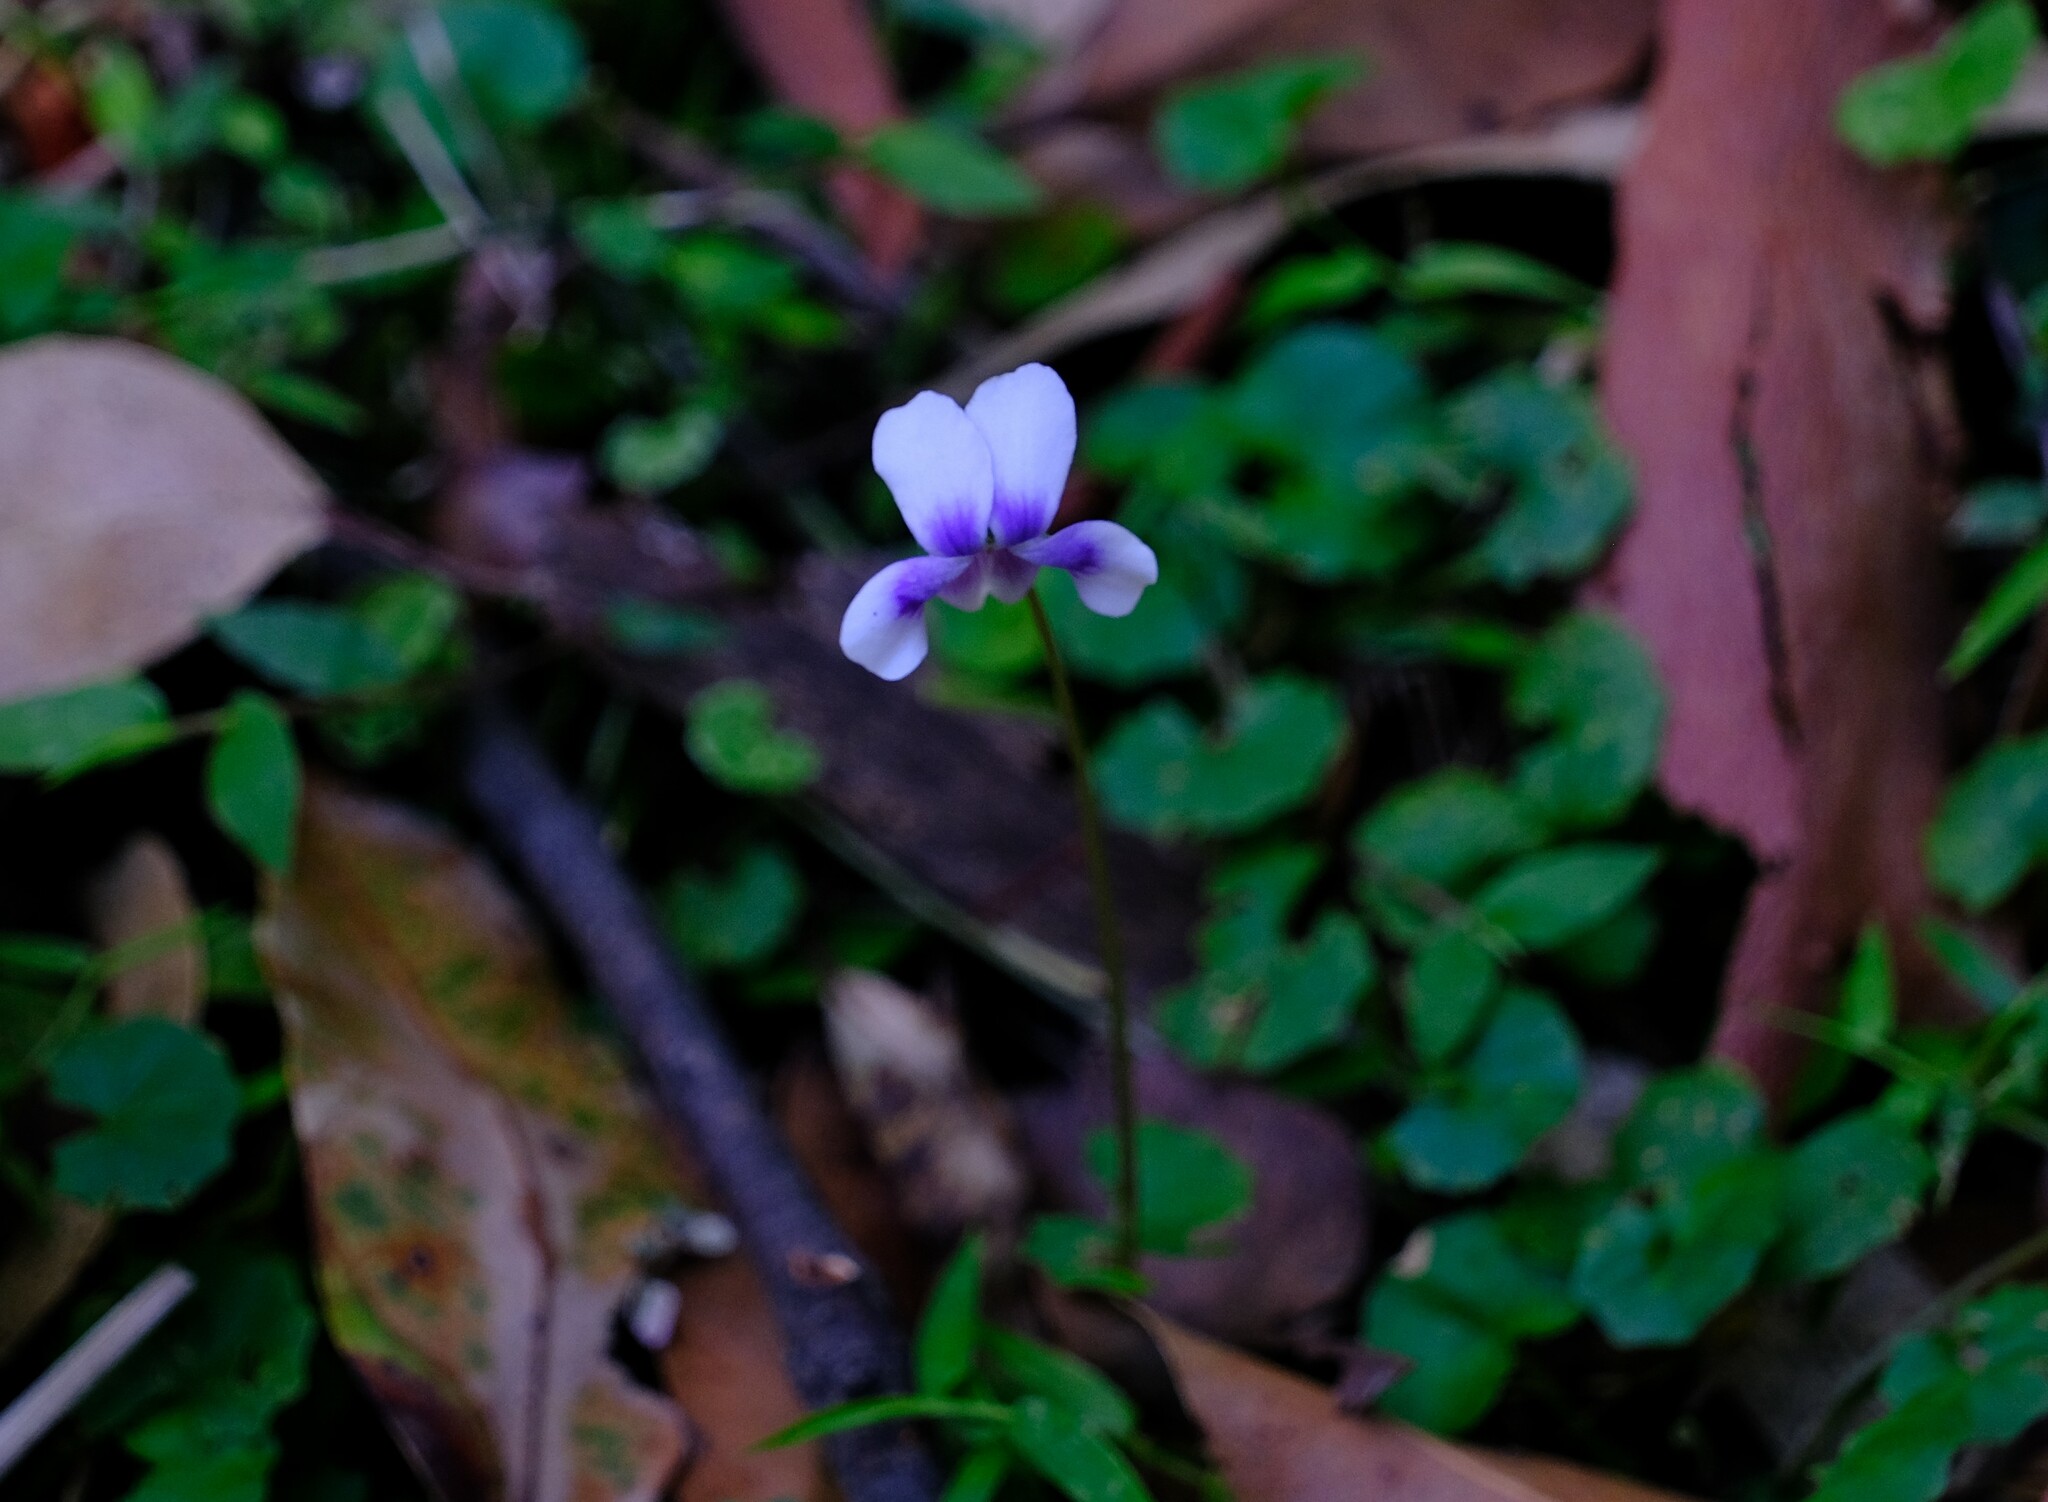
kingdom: Plantae
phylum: Tracheophyta
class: Magnoliopsida
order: Malpighiales
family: Violaceae
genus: Viola
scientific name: Viola banksii
